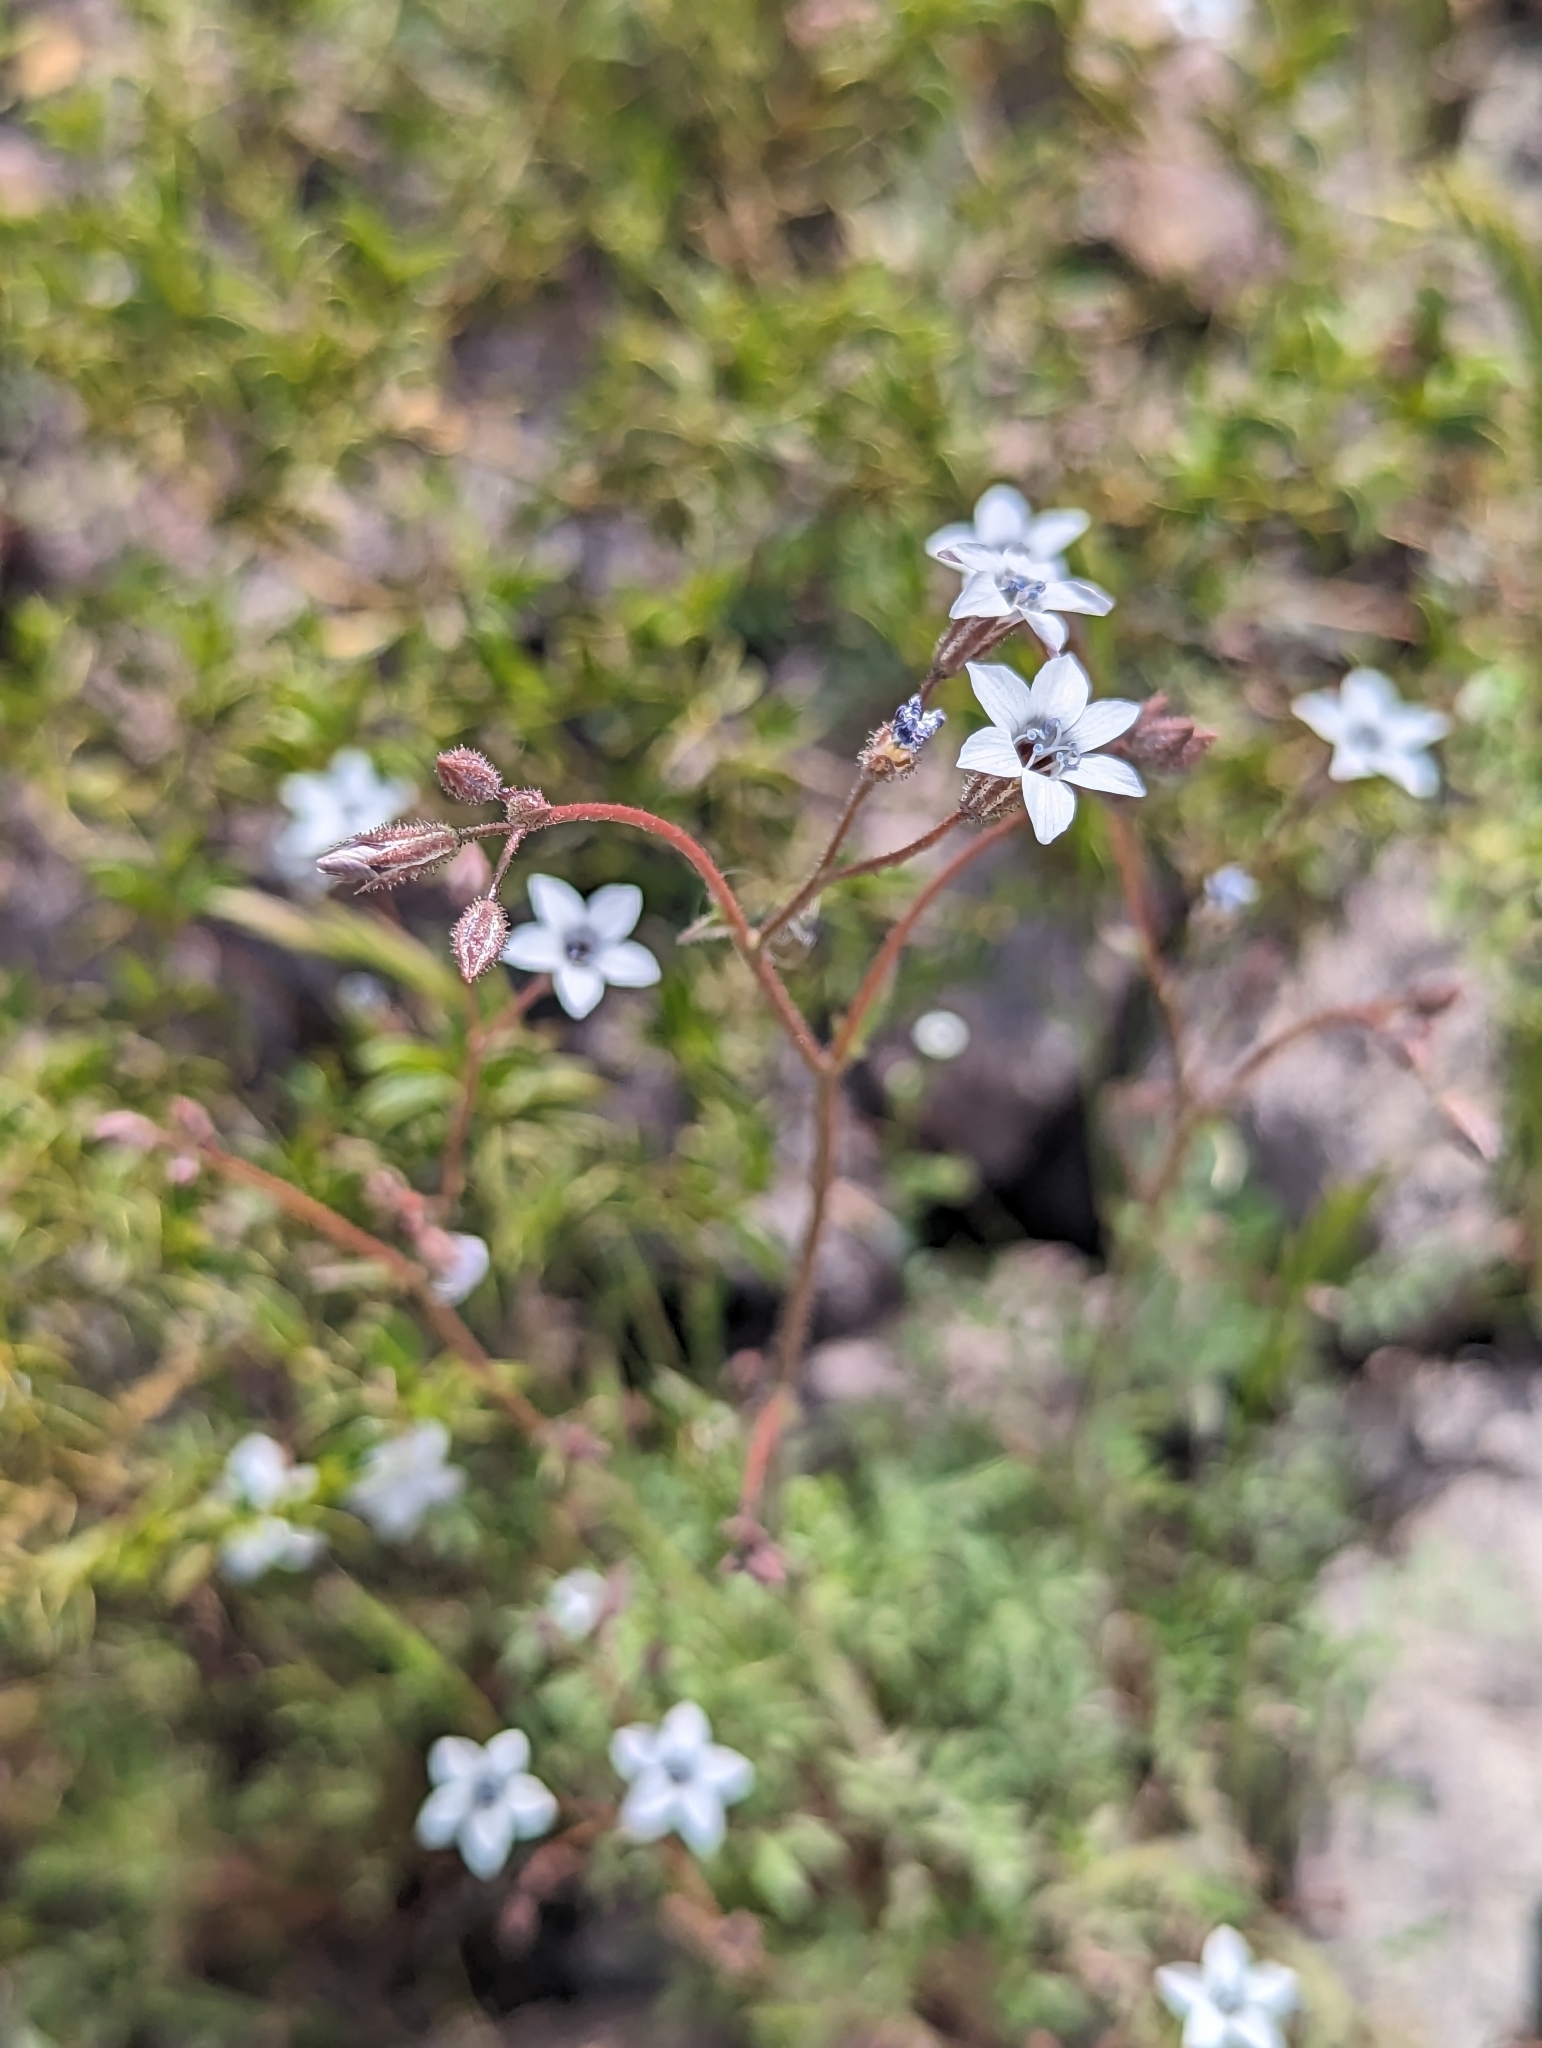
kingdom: Plantae
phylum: Tracheophyta
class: Magnoliopsida
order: Ericales
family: Polemoniaceae
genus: Gilia
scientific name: Gilia stellata
